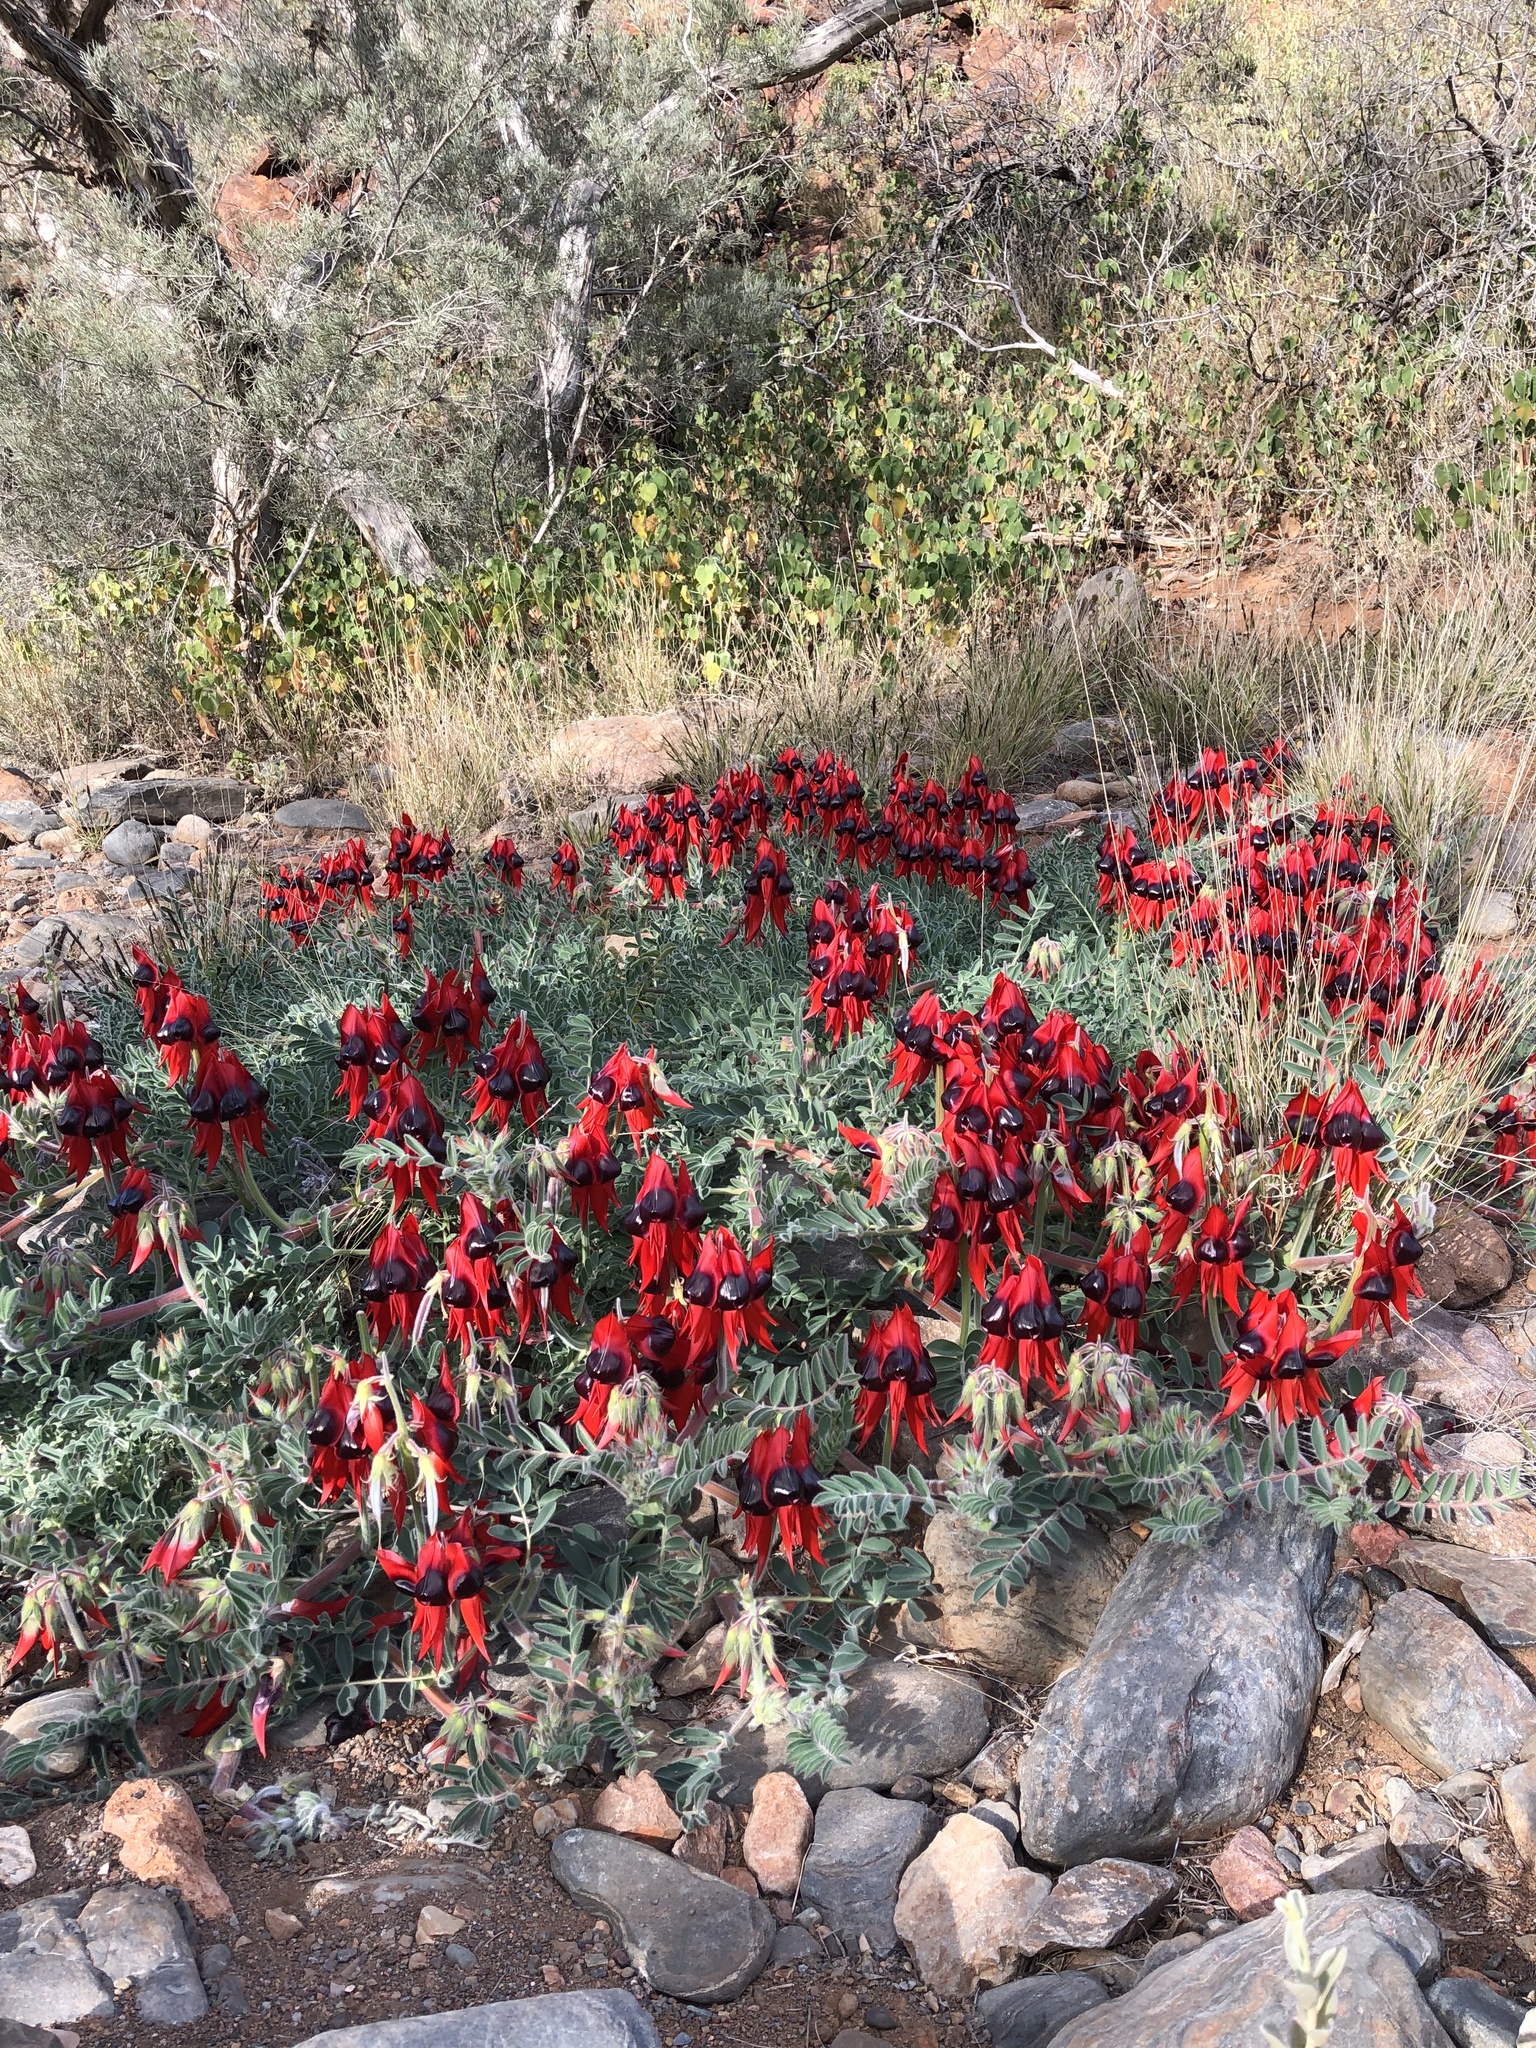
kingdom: Plantae
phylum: Tracheophyta
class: Magnoliopsida
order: Fabales
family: Fabaceae
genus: Swainsona
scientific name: Swainsona formosa
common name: Sturt's desert-pea
